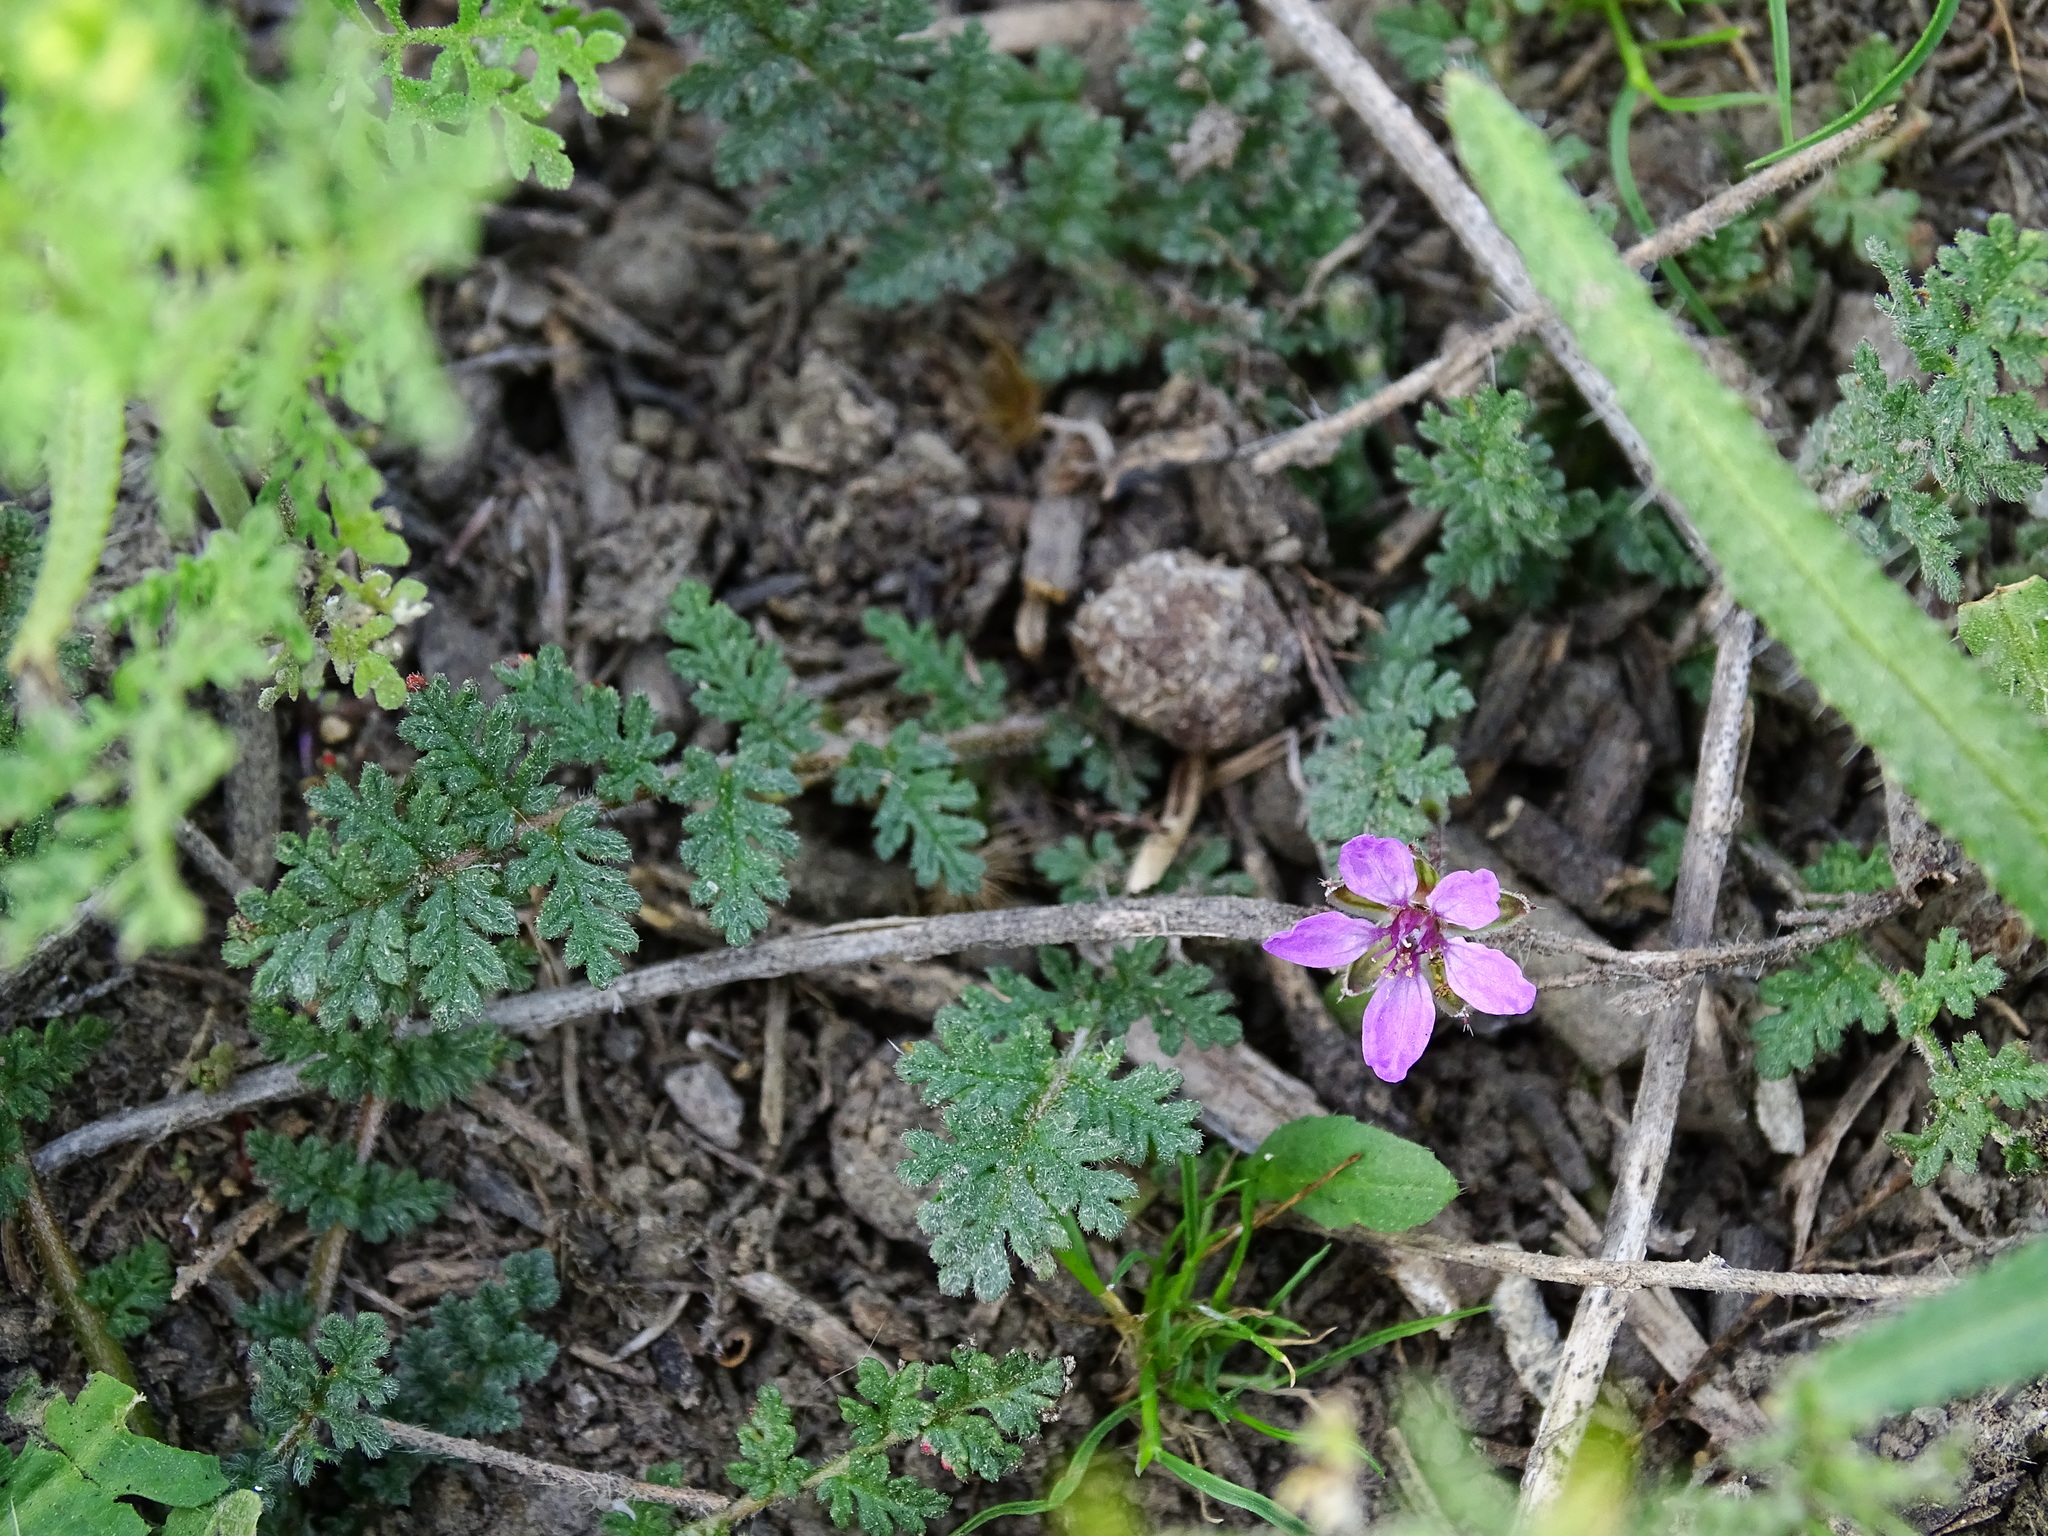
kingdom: Plantae
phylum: Tracheophyta
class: Magnoliopsida
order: Geraniales
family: Geraniaceae
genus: Erodium
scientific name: Erodium cicutarium
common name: Common stork's-bill
